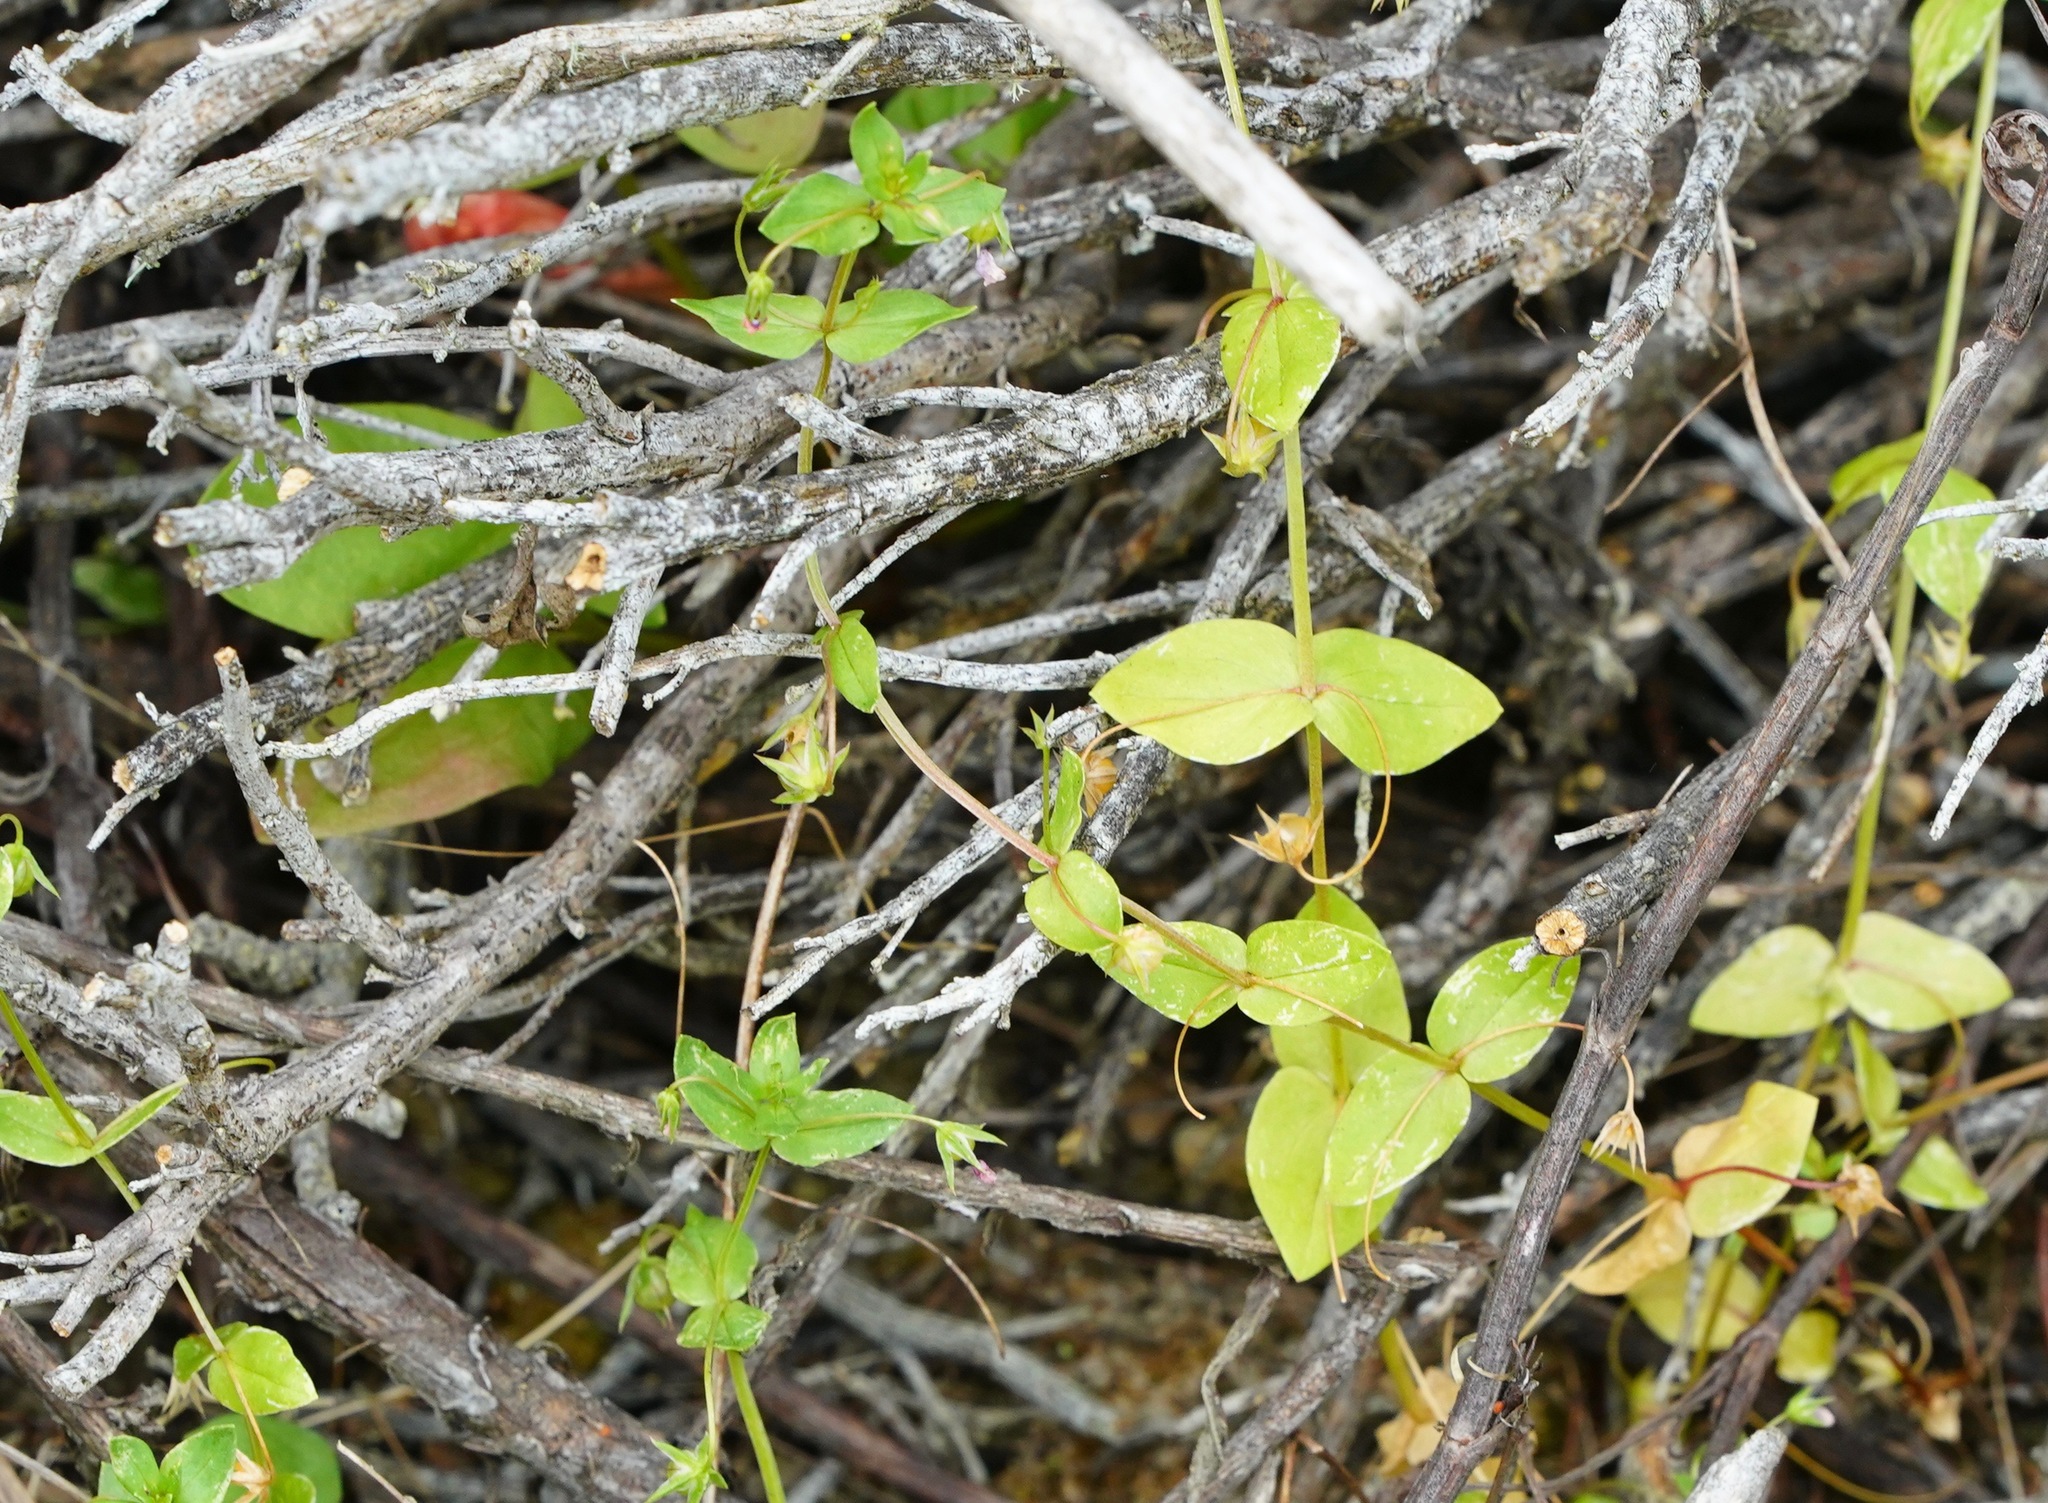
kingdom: Plantae
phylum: Tracheophyta
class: Magnoliopsida
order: Ericales
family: Primulaceae
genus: Lysimachia
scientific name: Lysimachia arvensis
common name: Scarlet pimpernel
